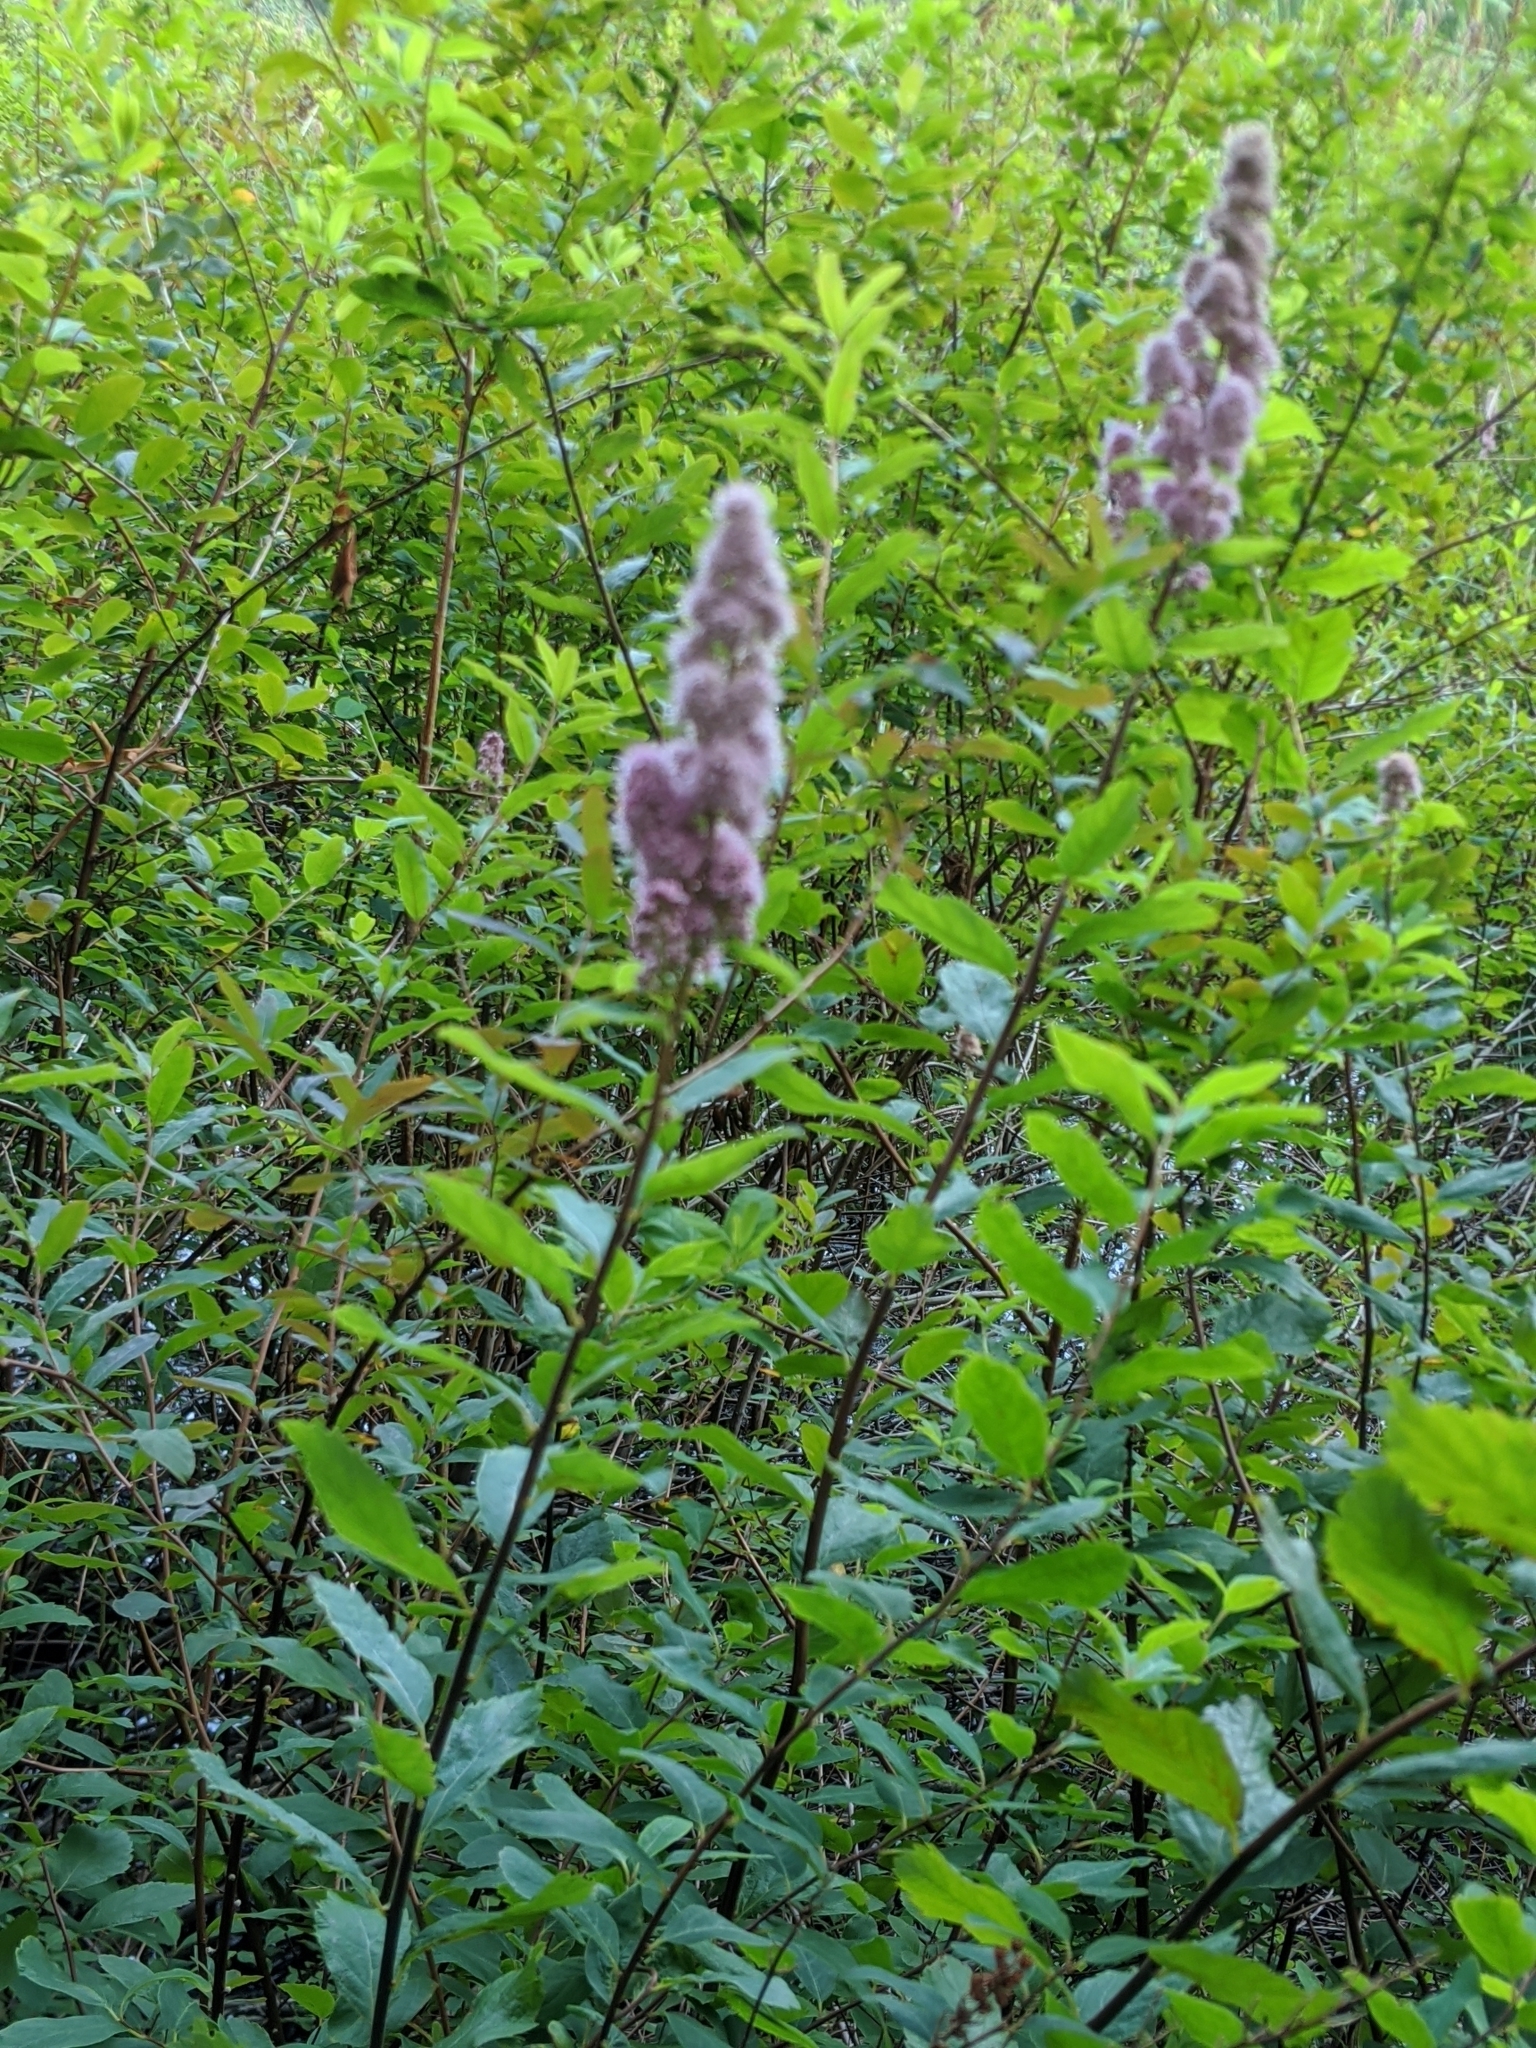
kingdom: Plantae
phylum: Tracheophyta
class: Magnoliopsida
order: Rosales
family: Rosaceae
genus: Spiraea
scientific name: Spiraea douglasii
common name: Steeplebush
